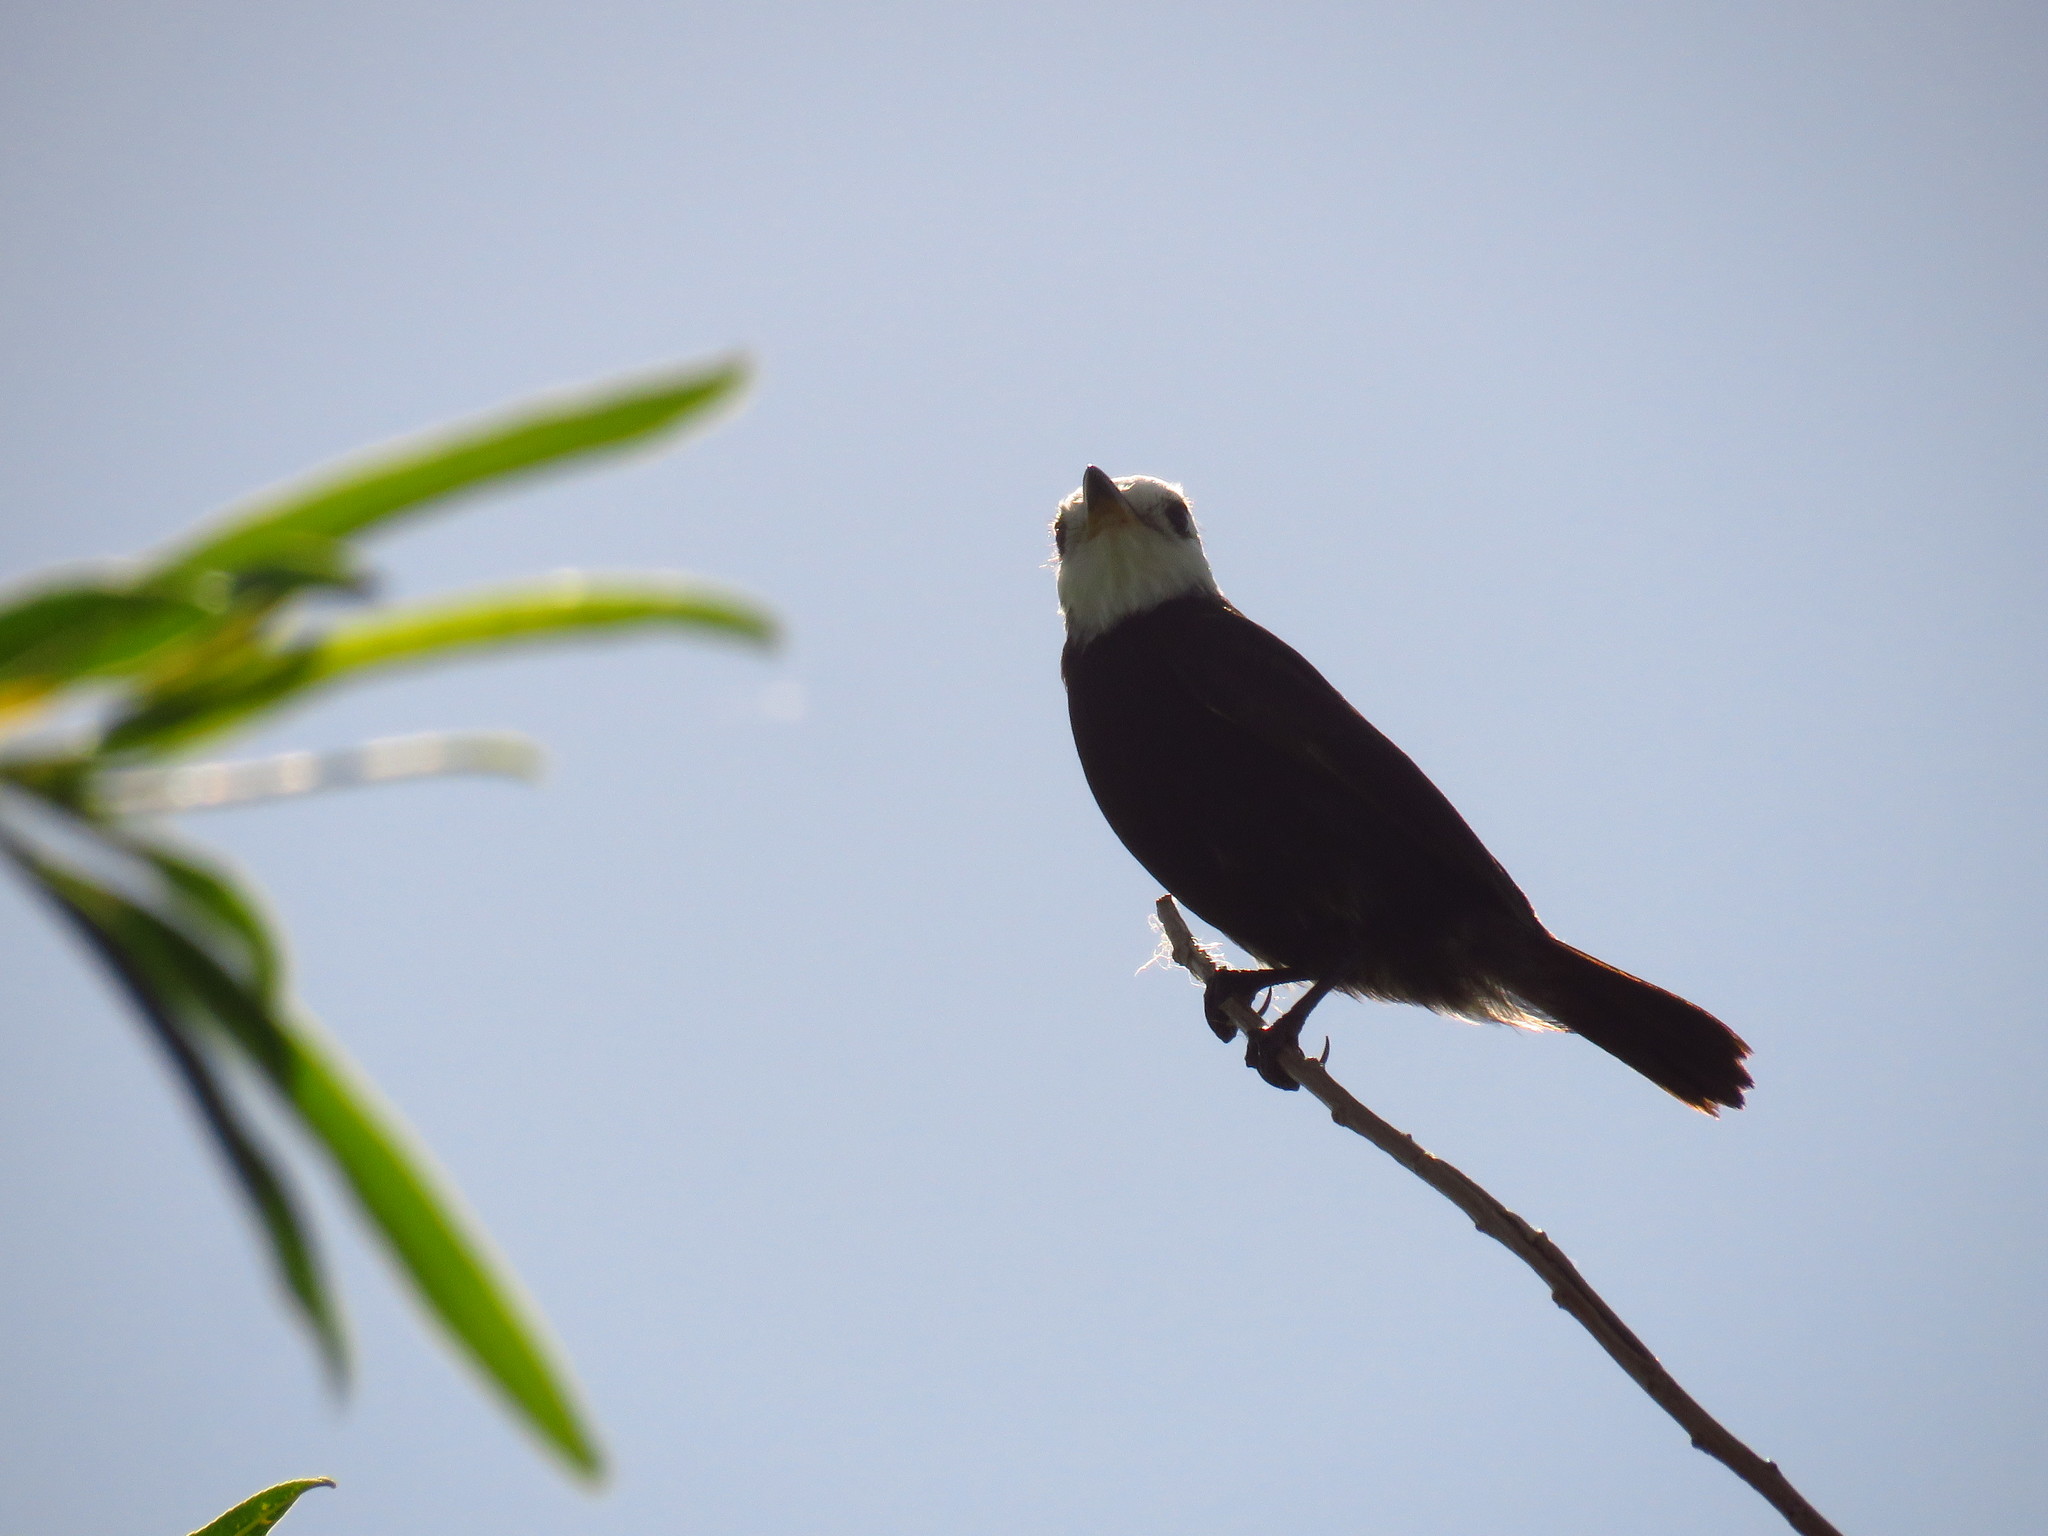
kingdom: Animalia
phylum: Chordata
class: Aves
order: Passeriformes
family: Tyrannidae
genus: Arundinicola
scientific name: Arundinicola leucocephala
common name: White-headed marsh tyrant
